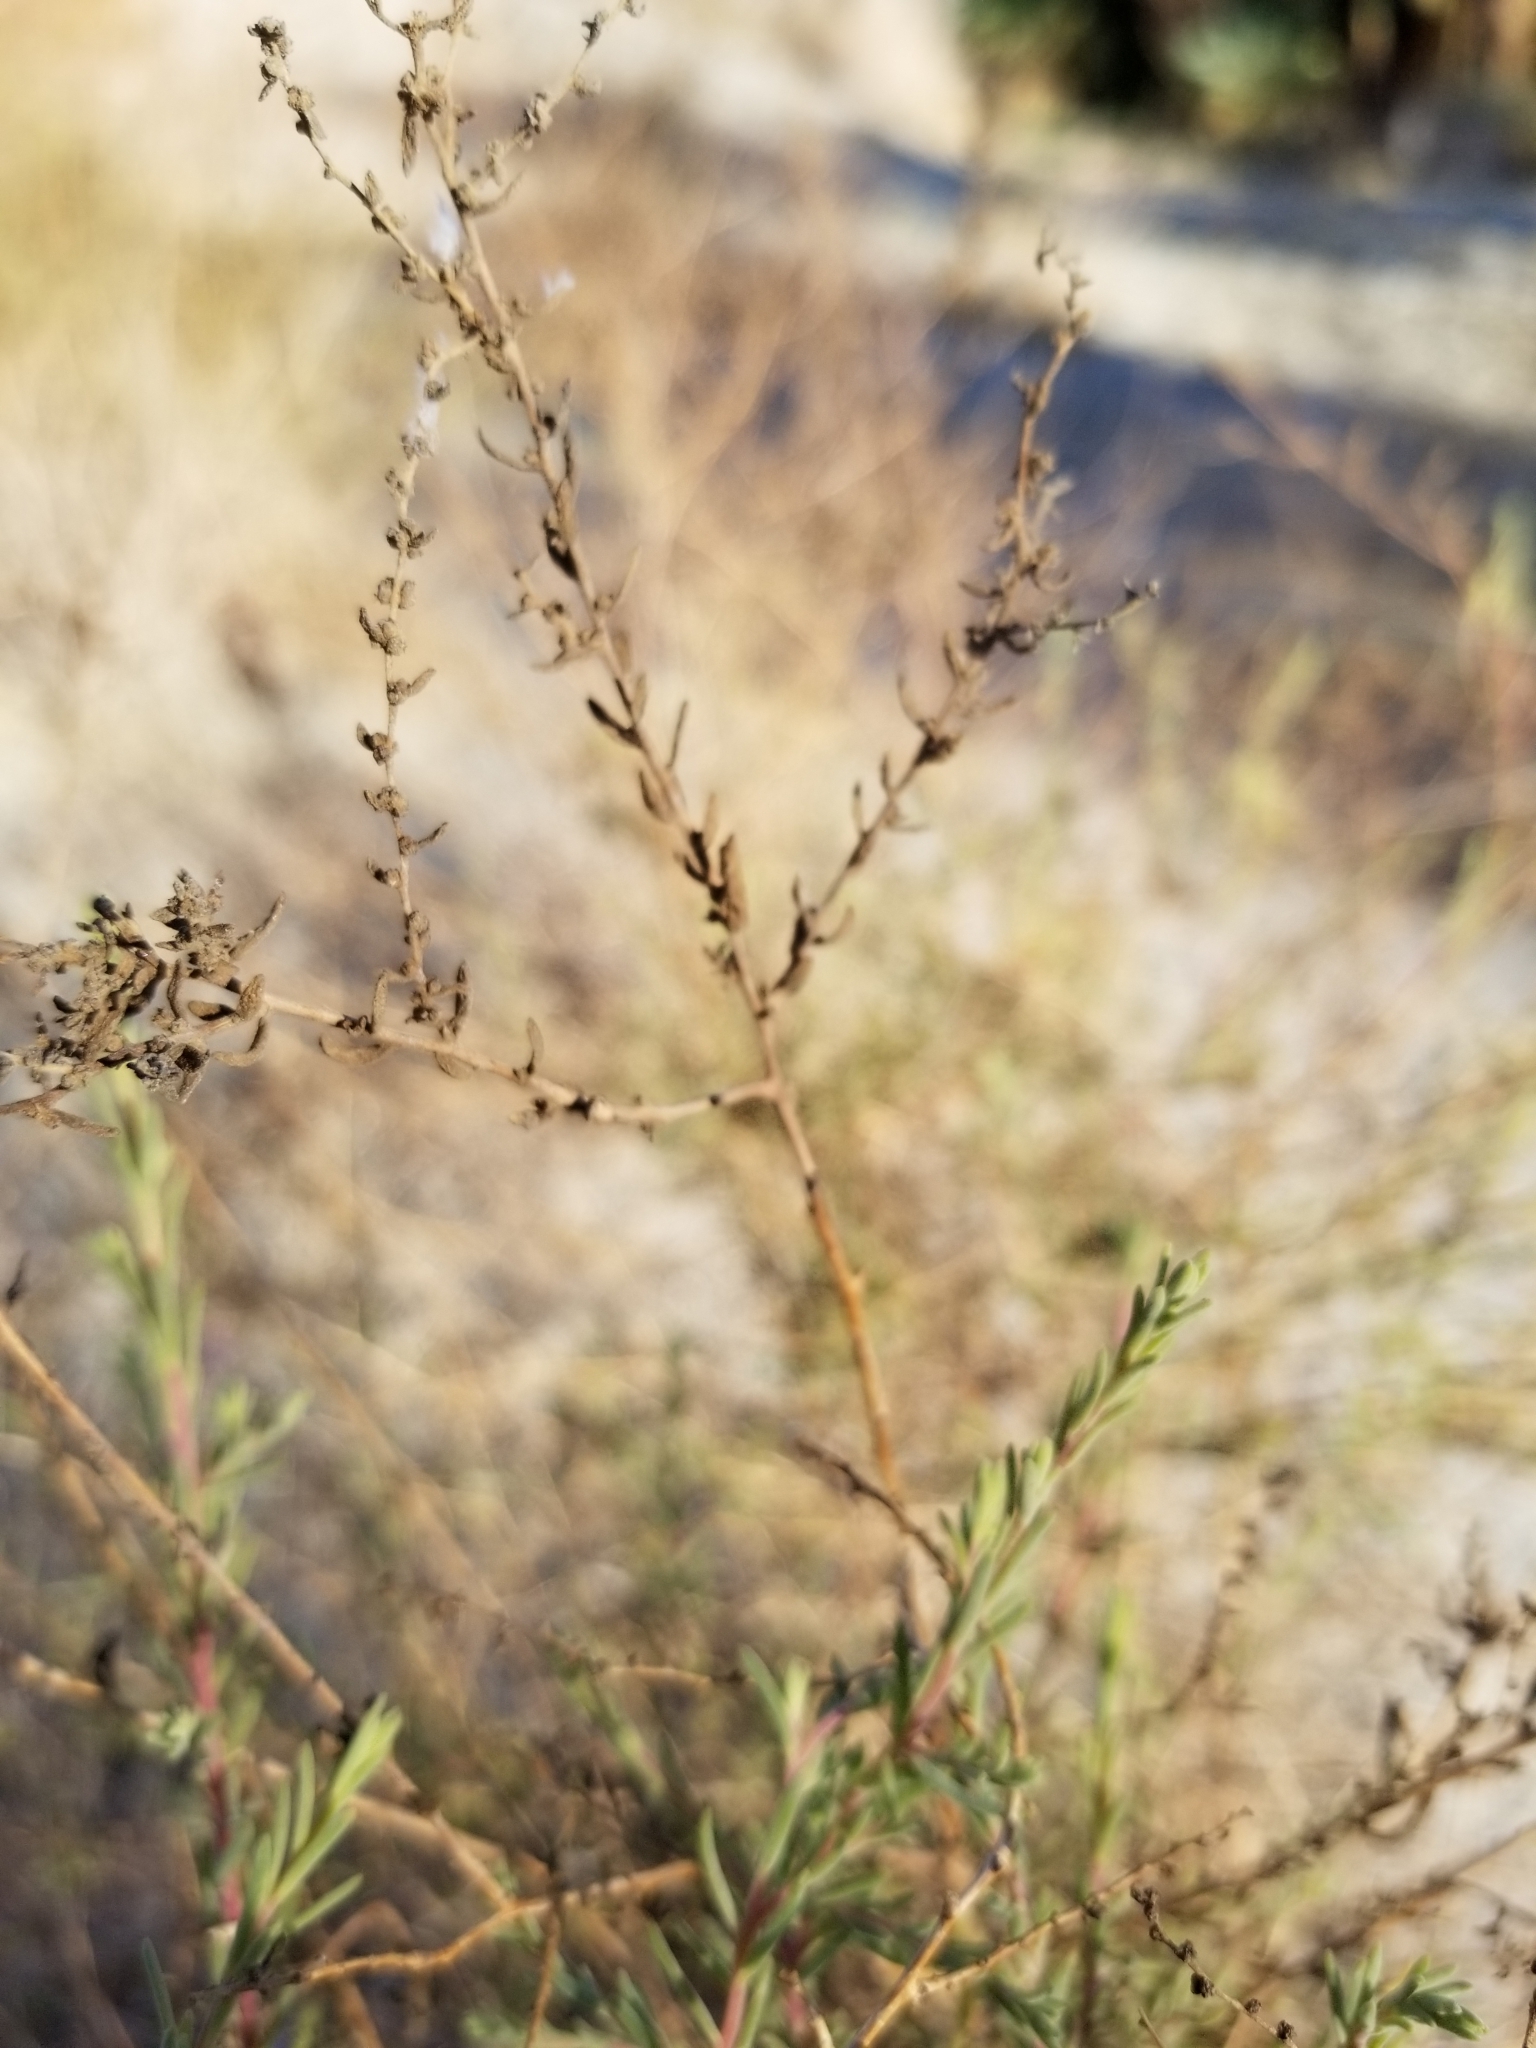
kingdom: Plantae
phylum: Tracheophyta
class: Magnoliopsida
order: Caryophyllales
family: Amaranthaceae
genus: Suaeda
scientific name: Suaeda nigra
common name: Bush seepweed
